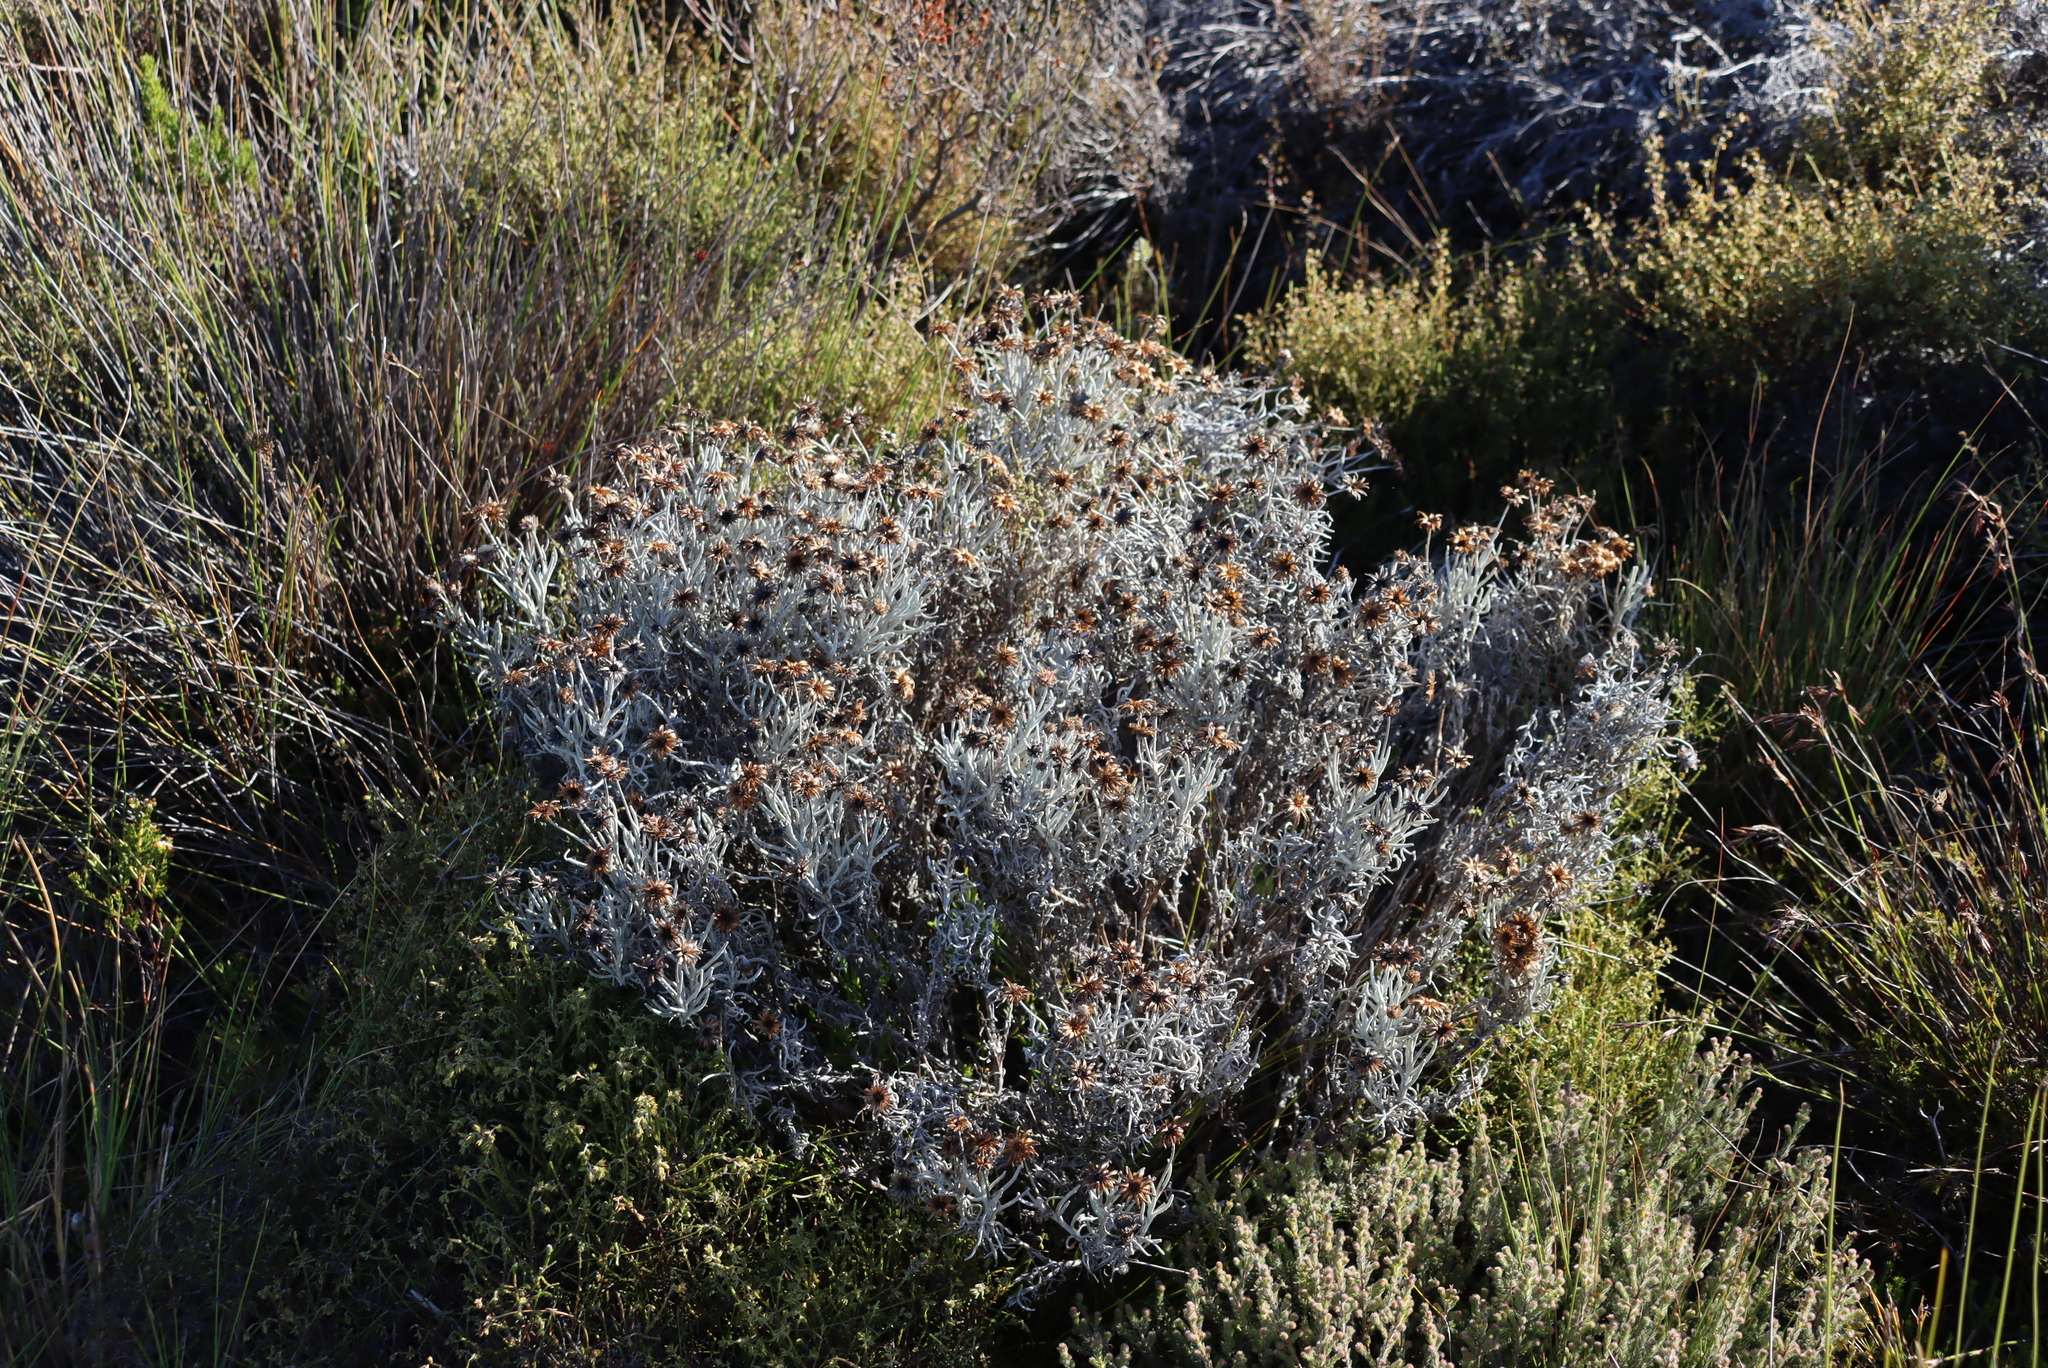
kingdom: Plantae
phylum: Tracheophyta
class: Magnoliopsida
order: Asterales
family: Asteraceae
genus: Syncarpha
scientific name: Syncarpha gnaphaloides
